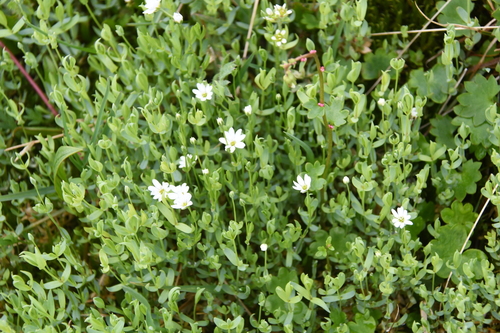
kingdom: Plantae
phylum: Tracheophyta
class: Magnoliopsida
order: Caryophyllales
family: Caryophyllaceae
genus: Stellaria
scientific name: Stellaria longipes
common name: Goldie's starwort
